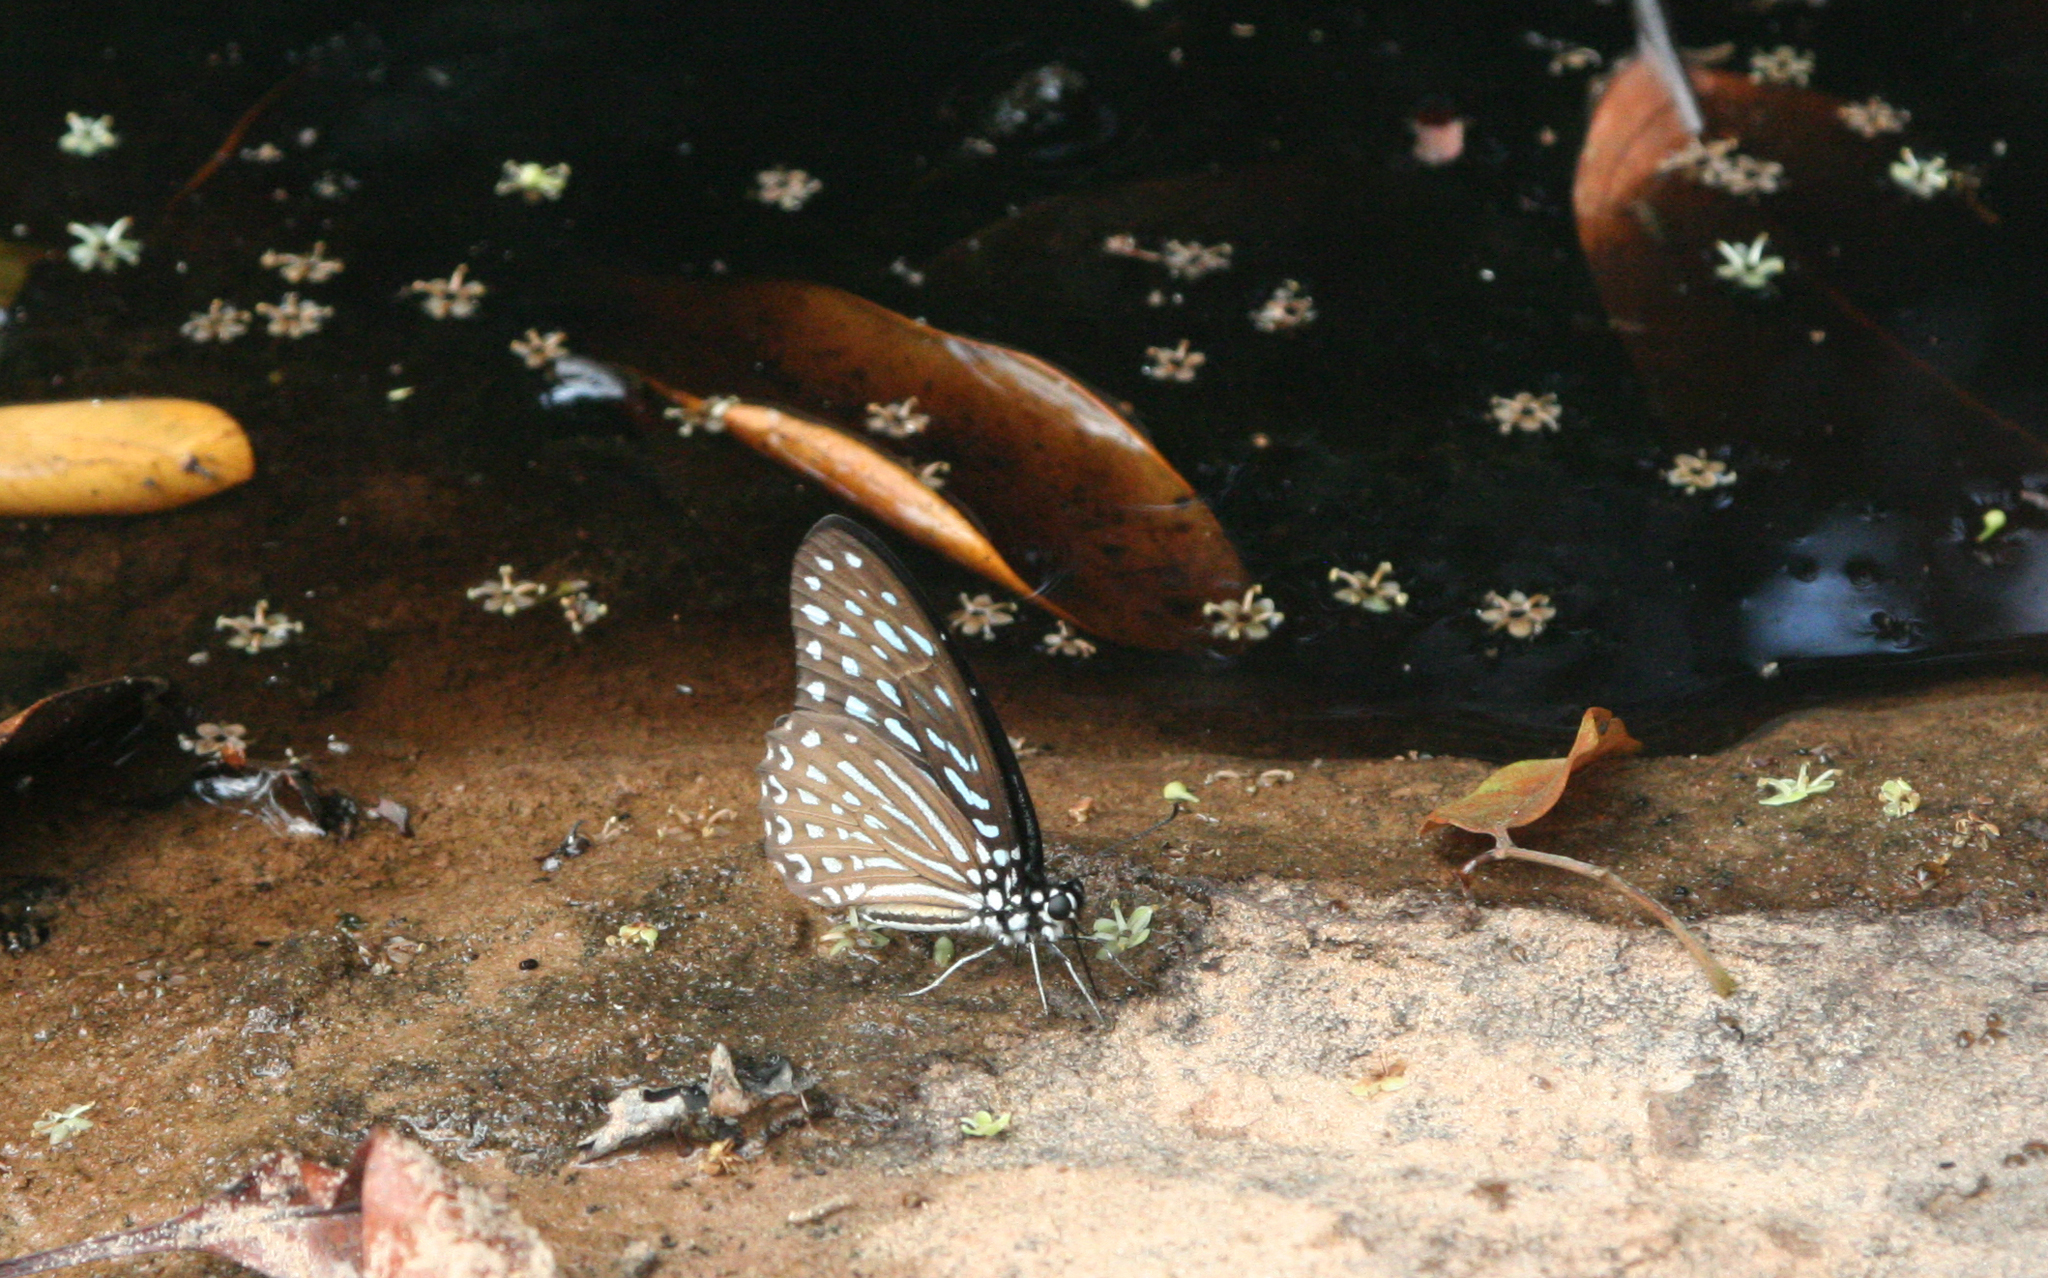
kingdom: Animalia
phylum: Arthropoda
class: Insecta
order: Lepidoptera
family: Papilionidae
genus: Graphium
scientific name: Graphium megarus
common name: Spotted zebra
